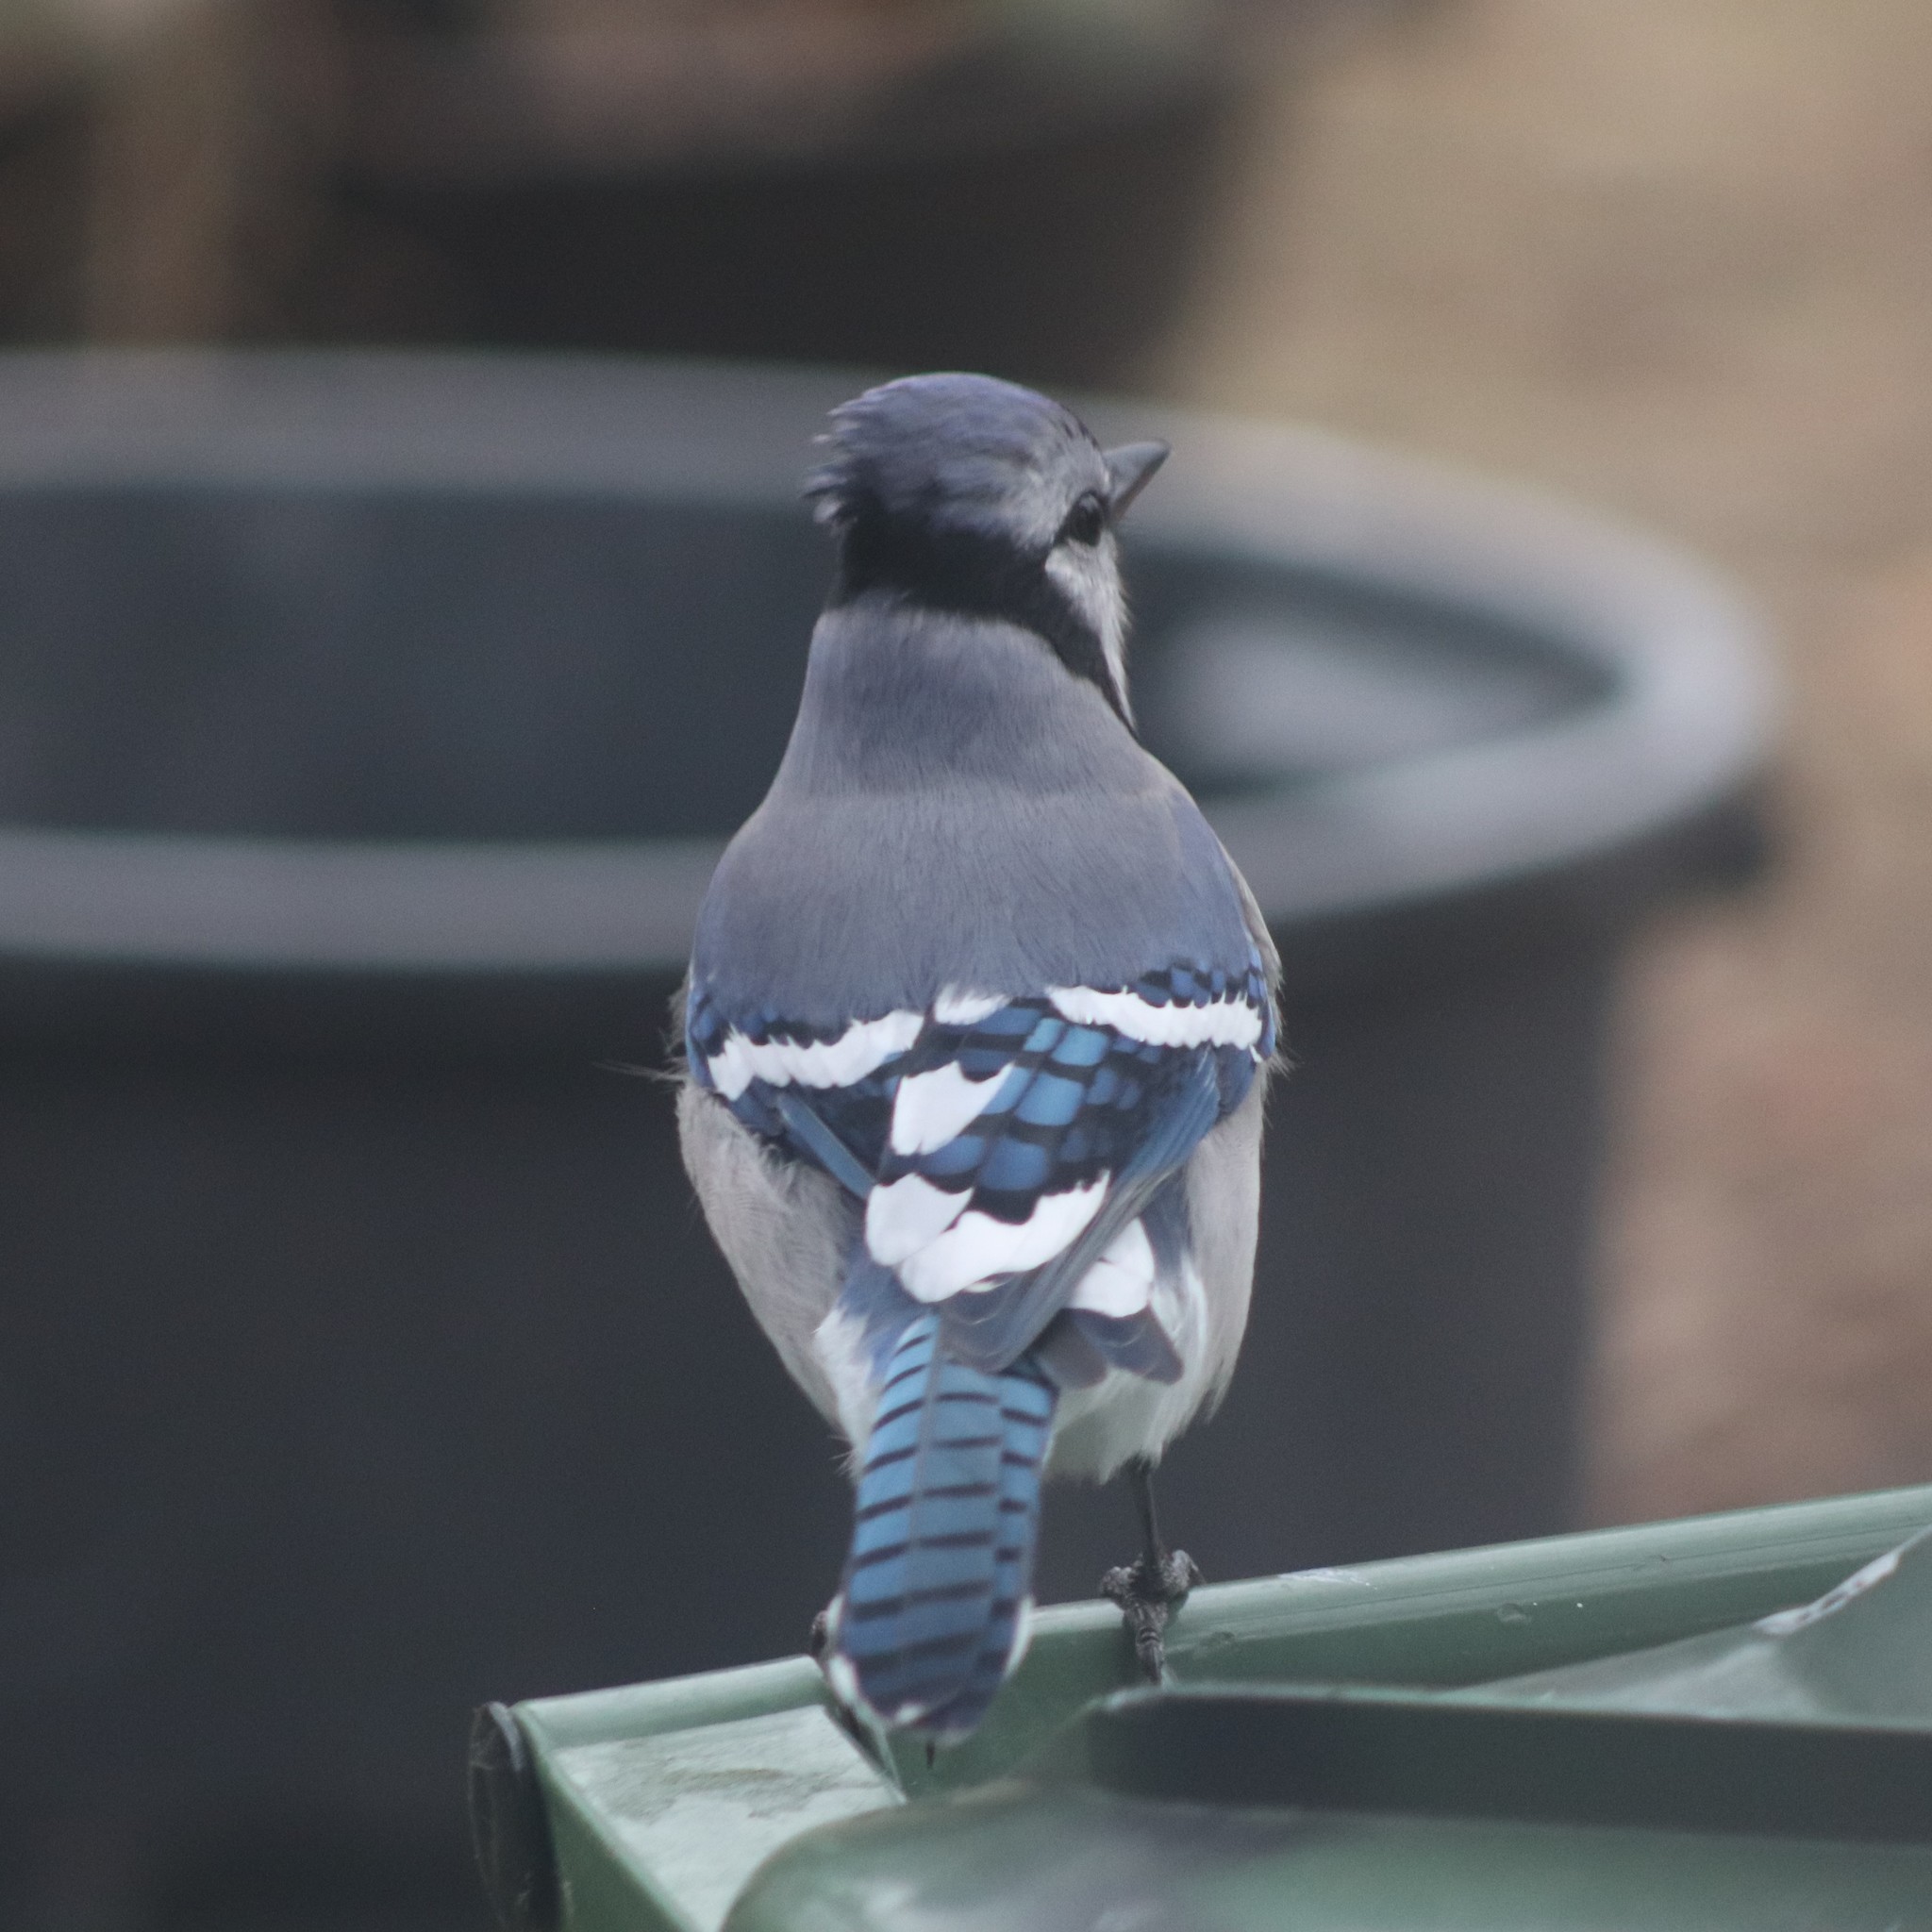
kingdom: Animalia
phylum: Chordata
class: Aves
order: Passeriformes
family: Corvidae
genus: Cyanocitta
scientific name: Cyanocitta cristata
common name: Blue jay
